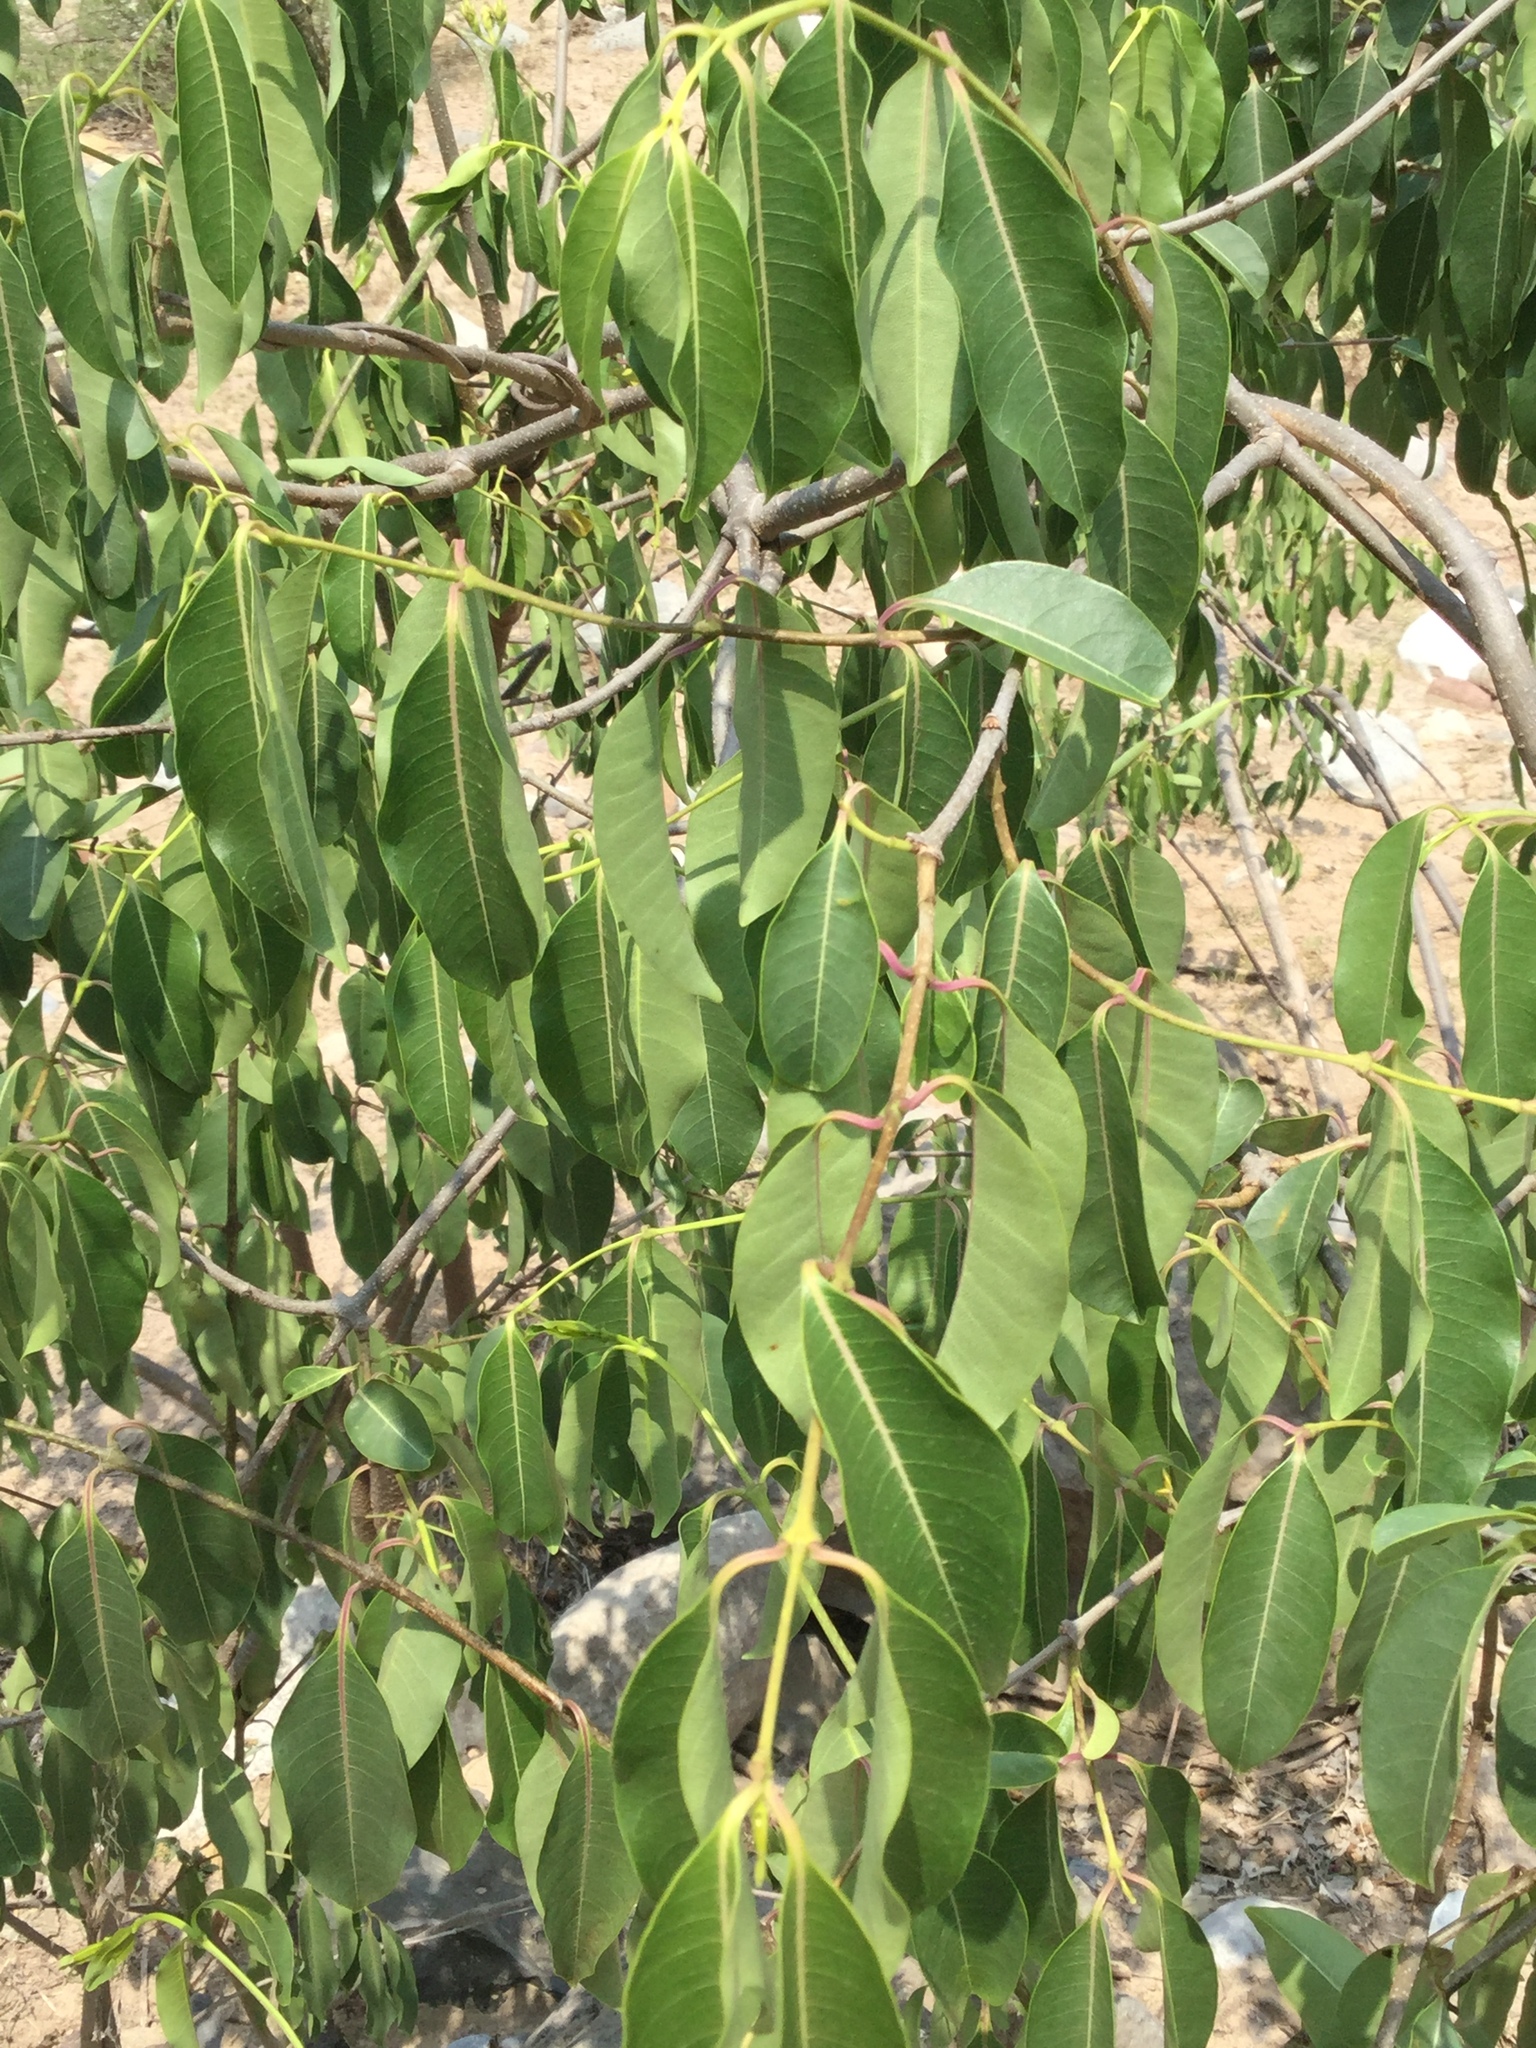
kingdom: Plantae
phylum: Tracheophyta
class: Magnoliopsida
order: Gentianales
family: Apocynaceae
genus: Cryptostegia
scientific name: Cryptostegia grandiflora
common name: Palay rubbervine
